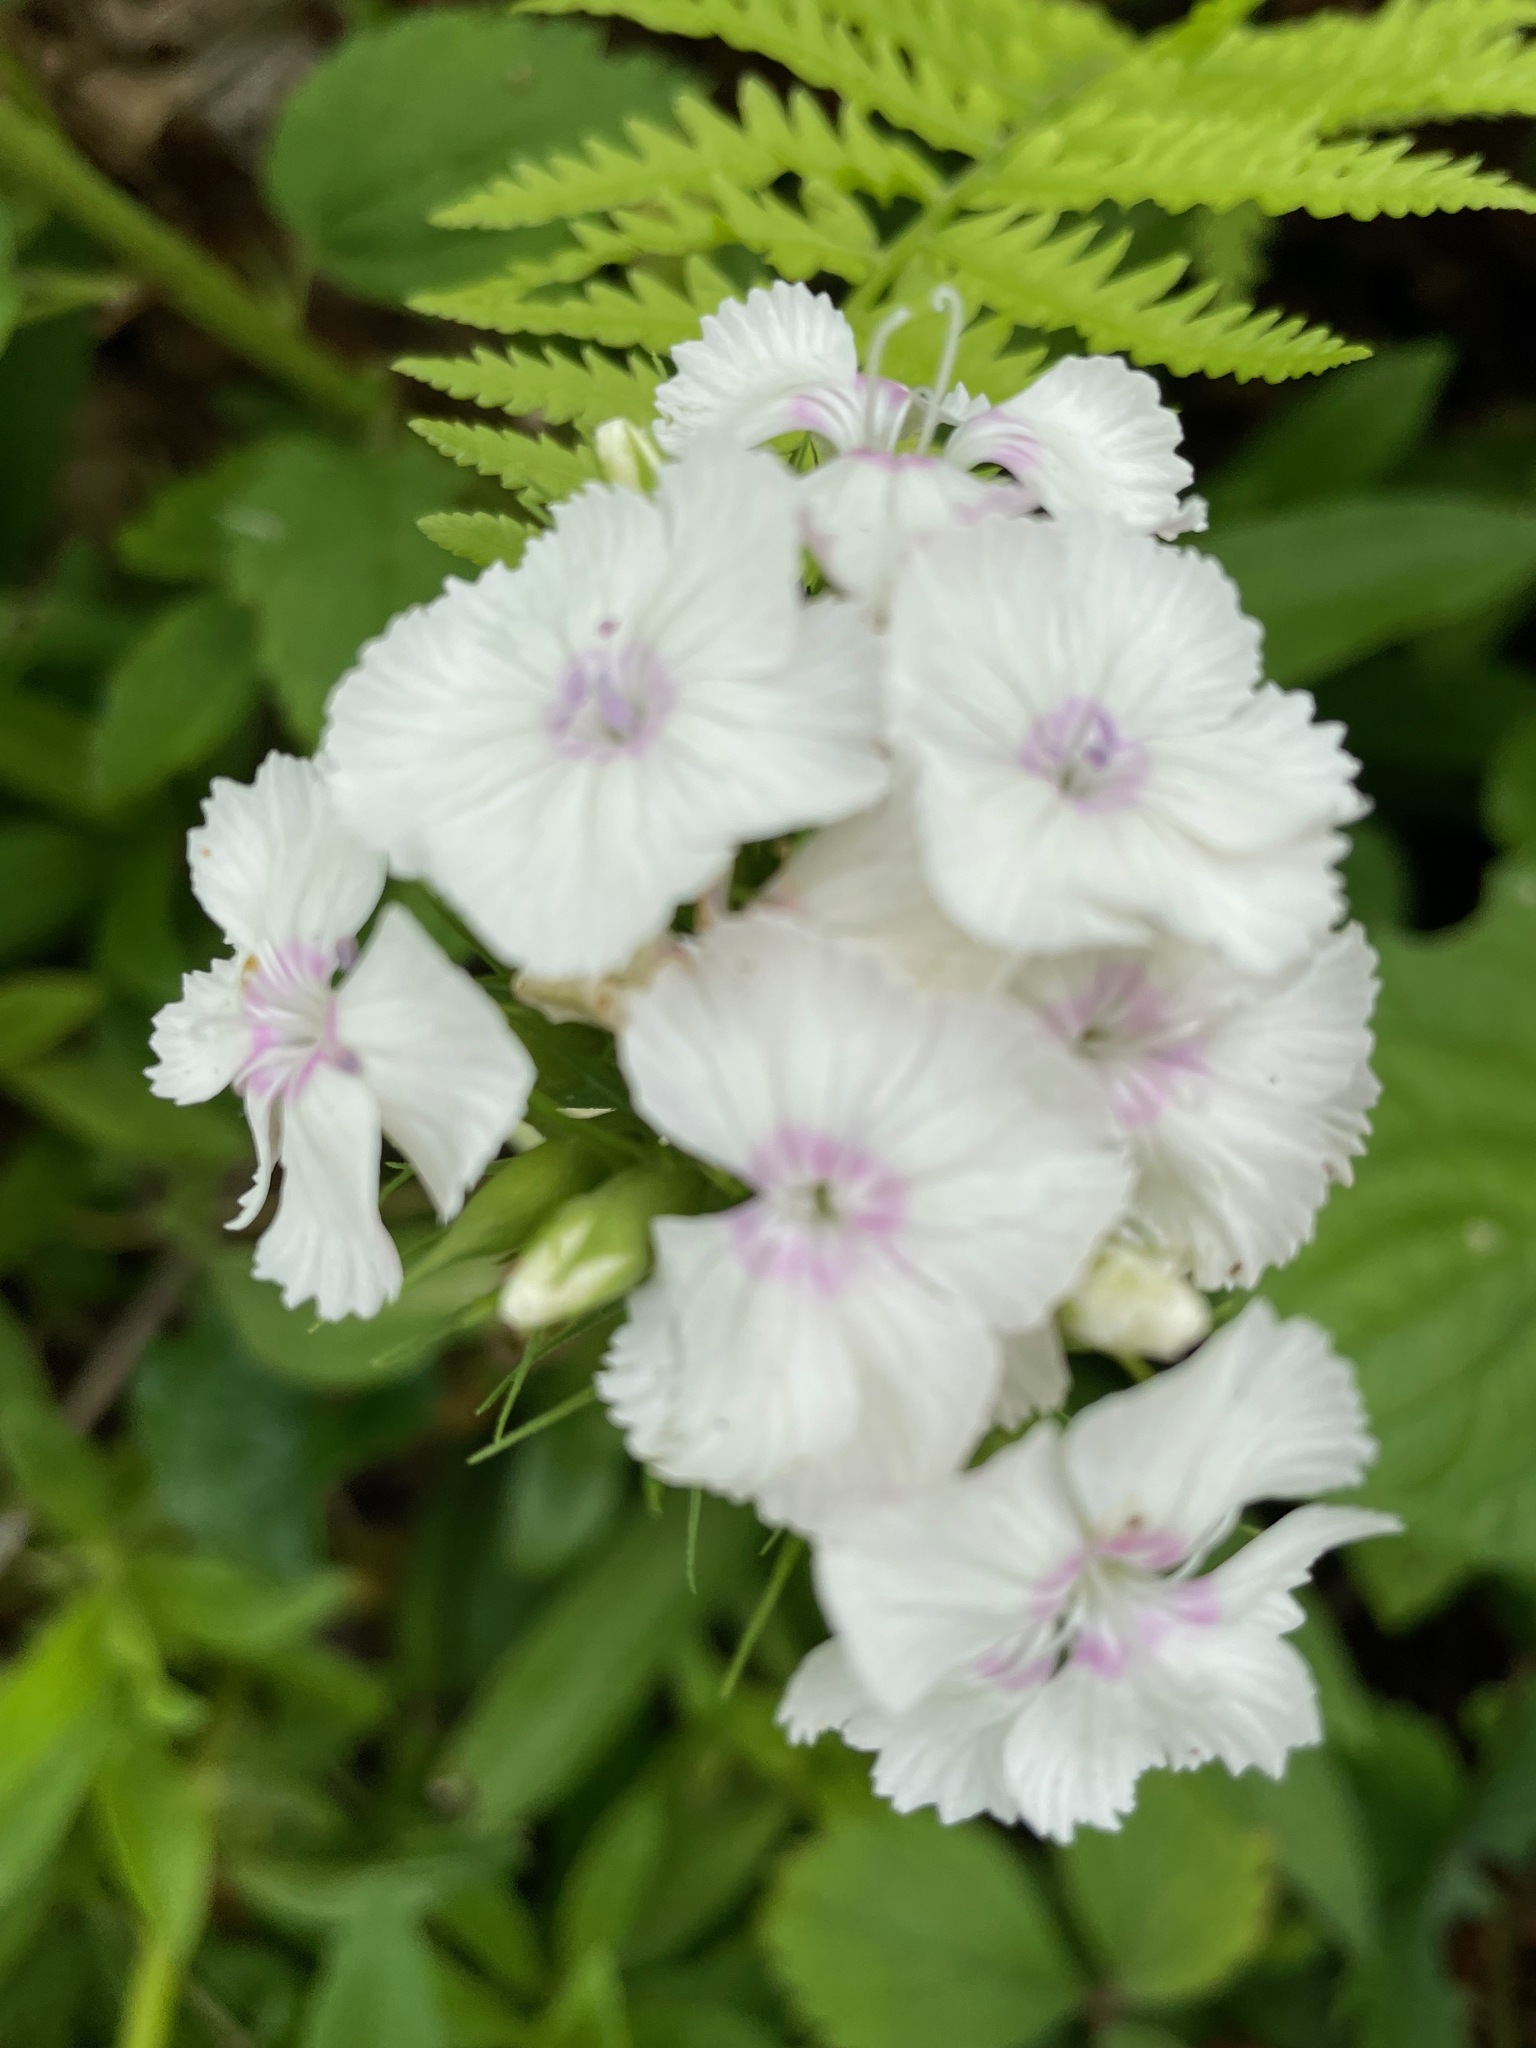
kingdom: Plantae
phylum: Tracheophyta
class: Magnoliopsida
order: Caryophyllales
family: Caryophyllaceae
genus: Dianthus
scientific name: Dianthus barbatus
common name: Sweet-william
